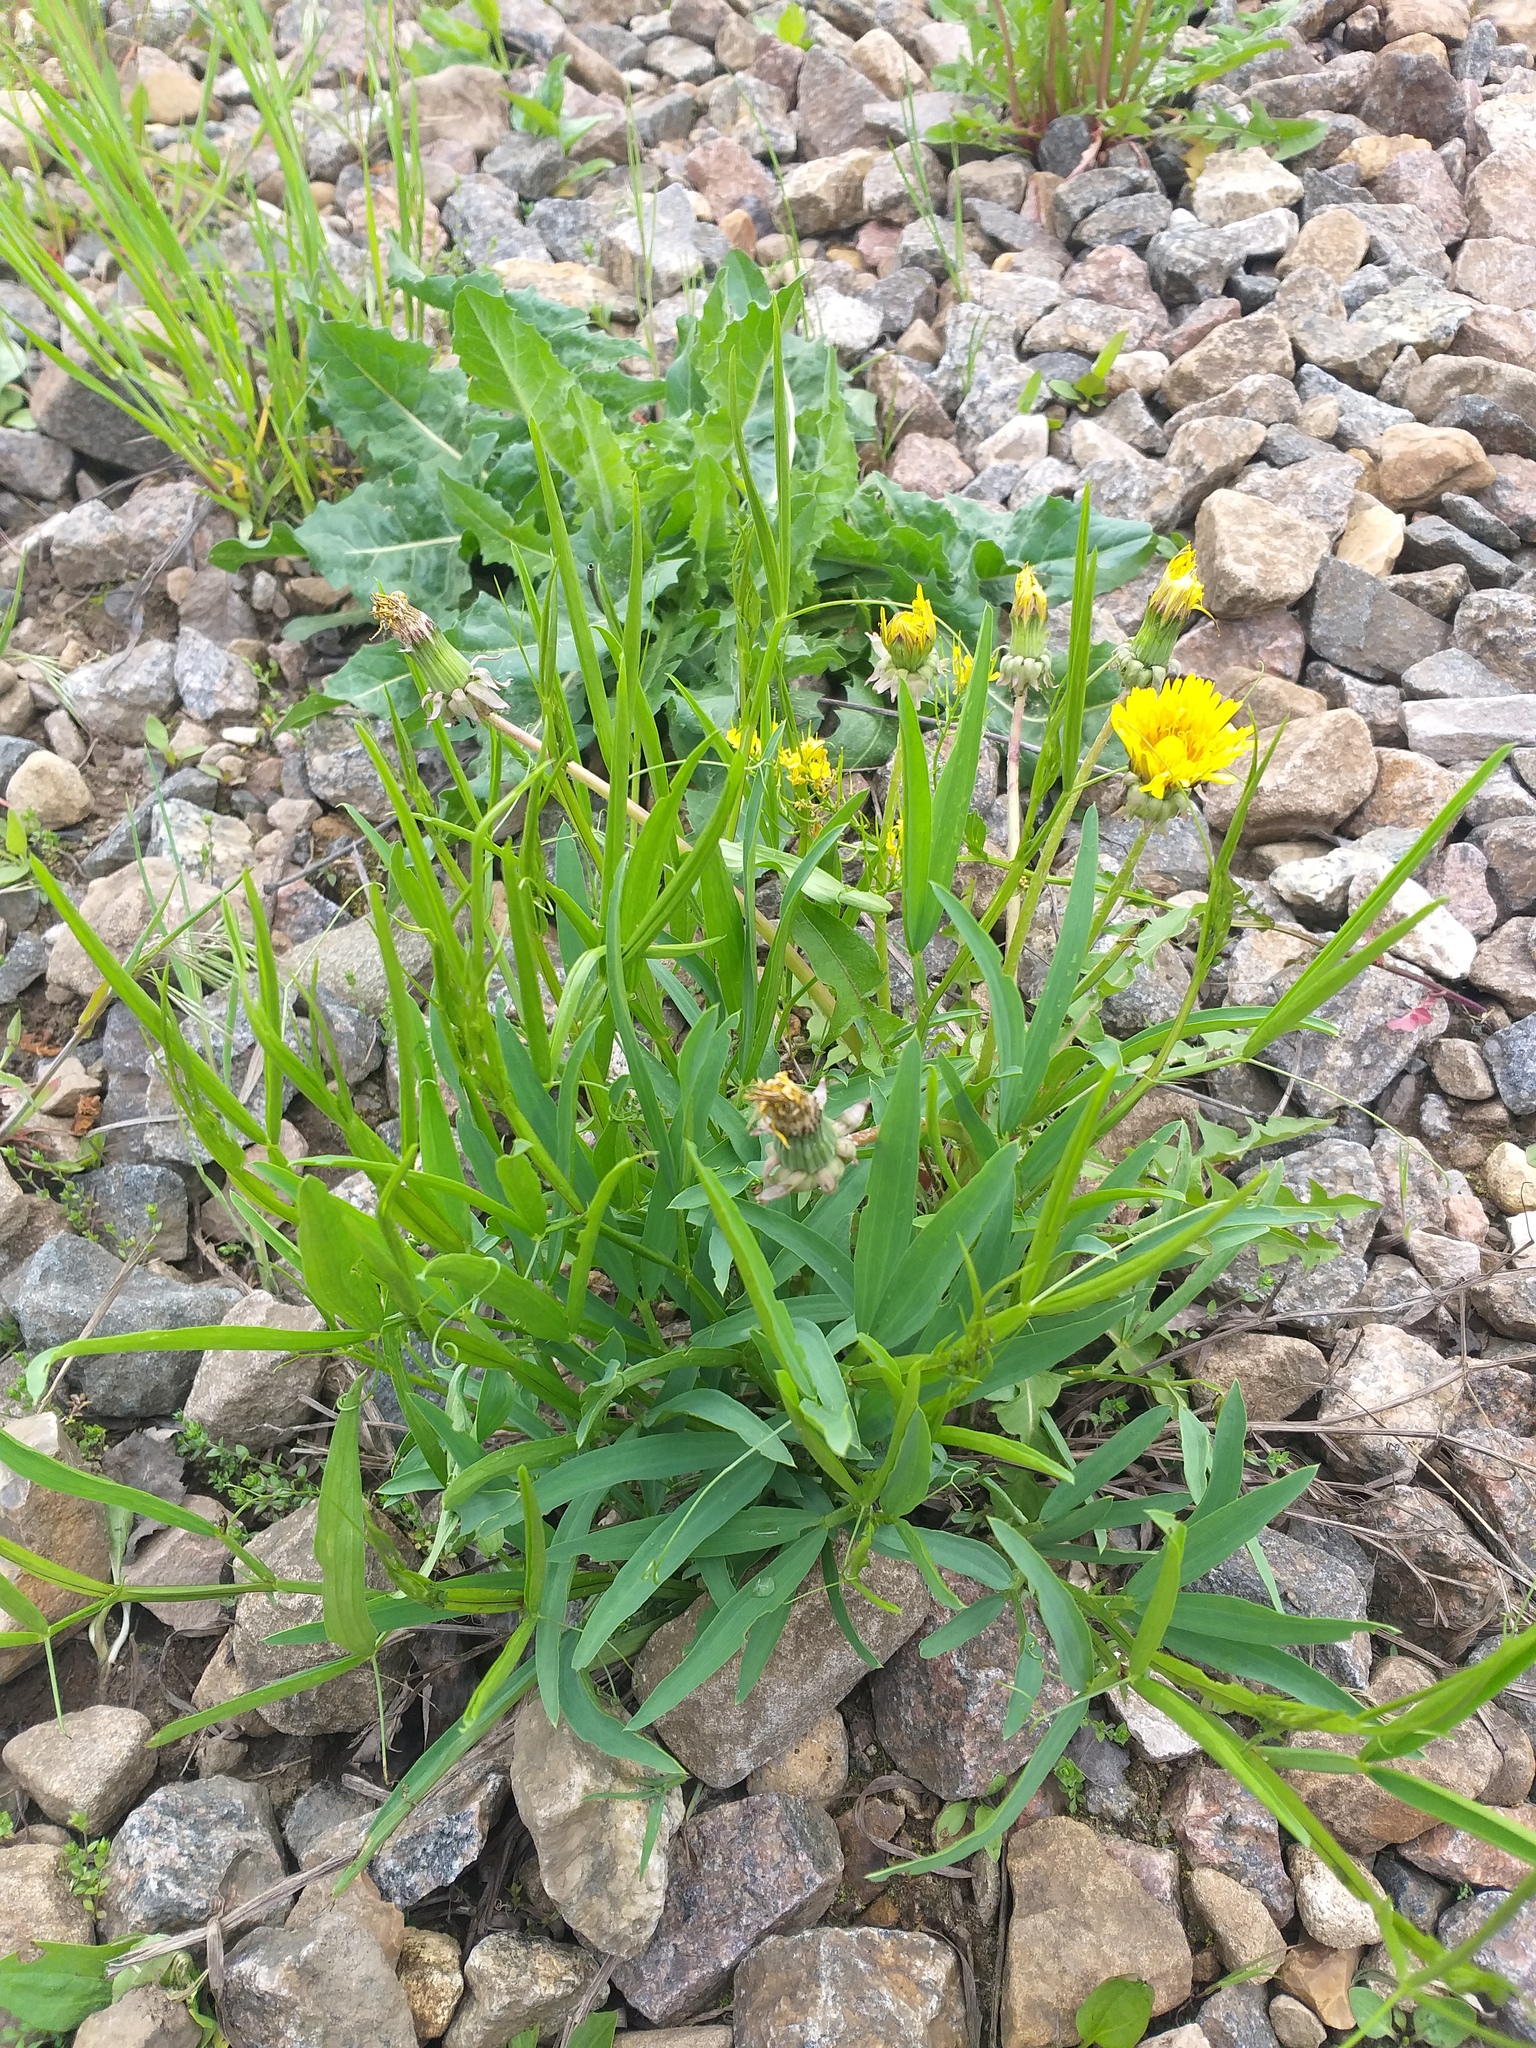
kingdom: Plantae
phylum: Tracheophyta
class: Magnoliopsida
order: Fabales
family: Fabaceae
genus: Lathyrus
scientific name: Lathyrus sylvestris
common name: Flat pea
